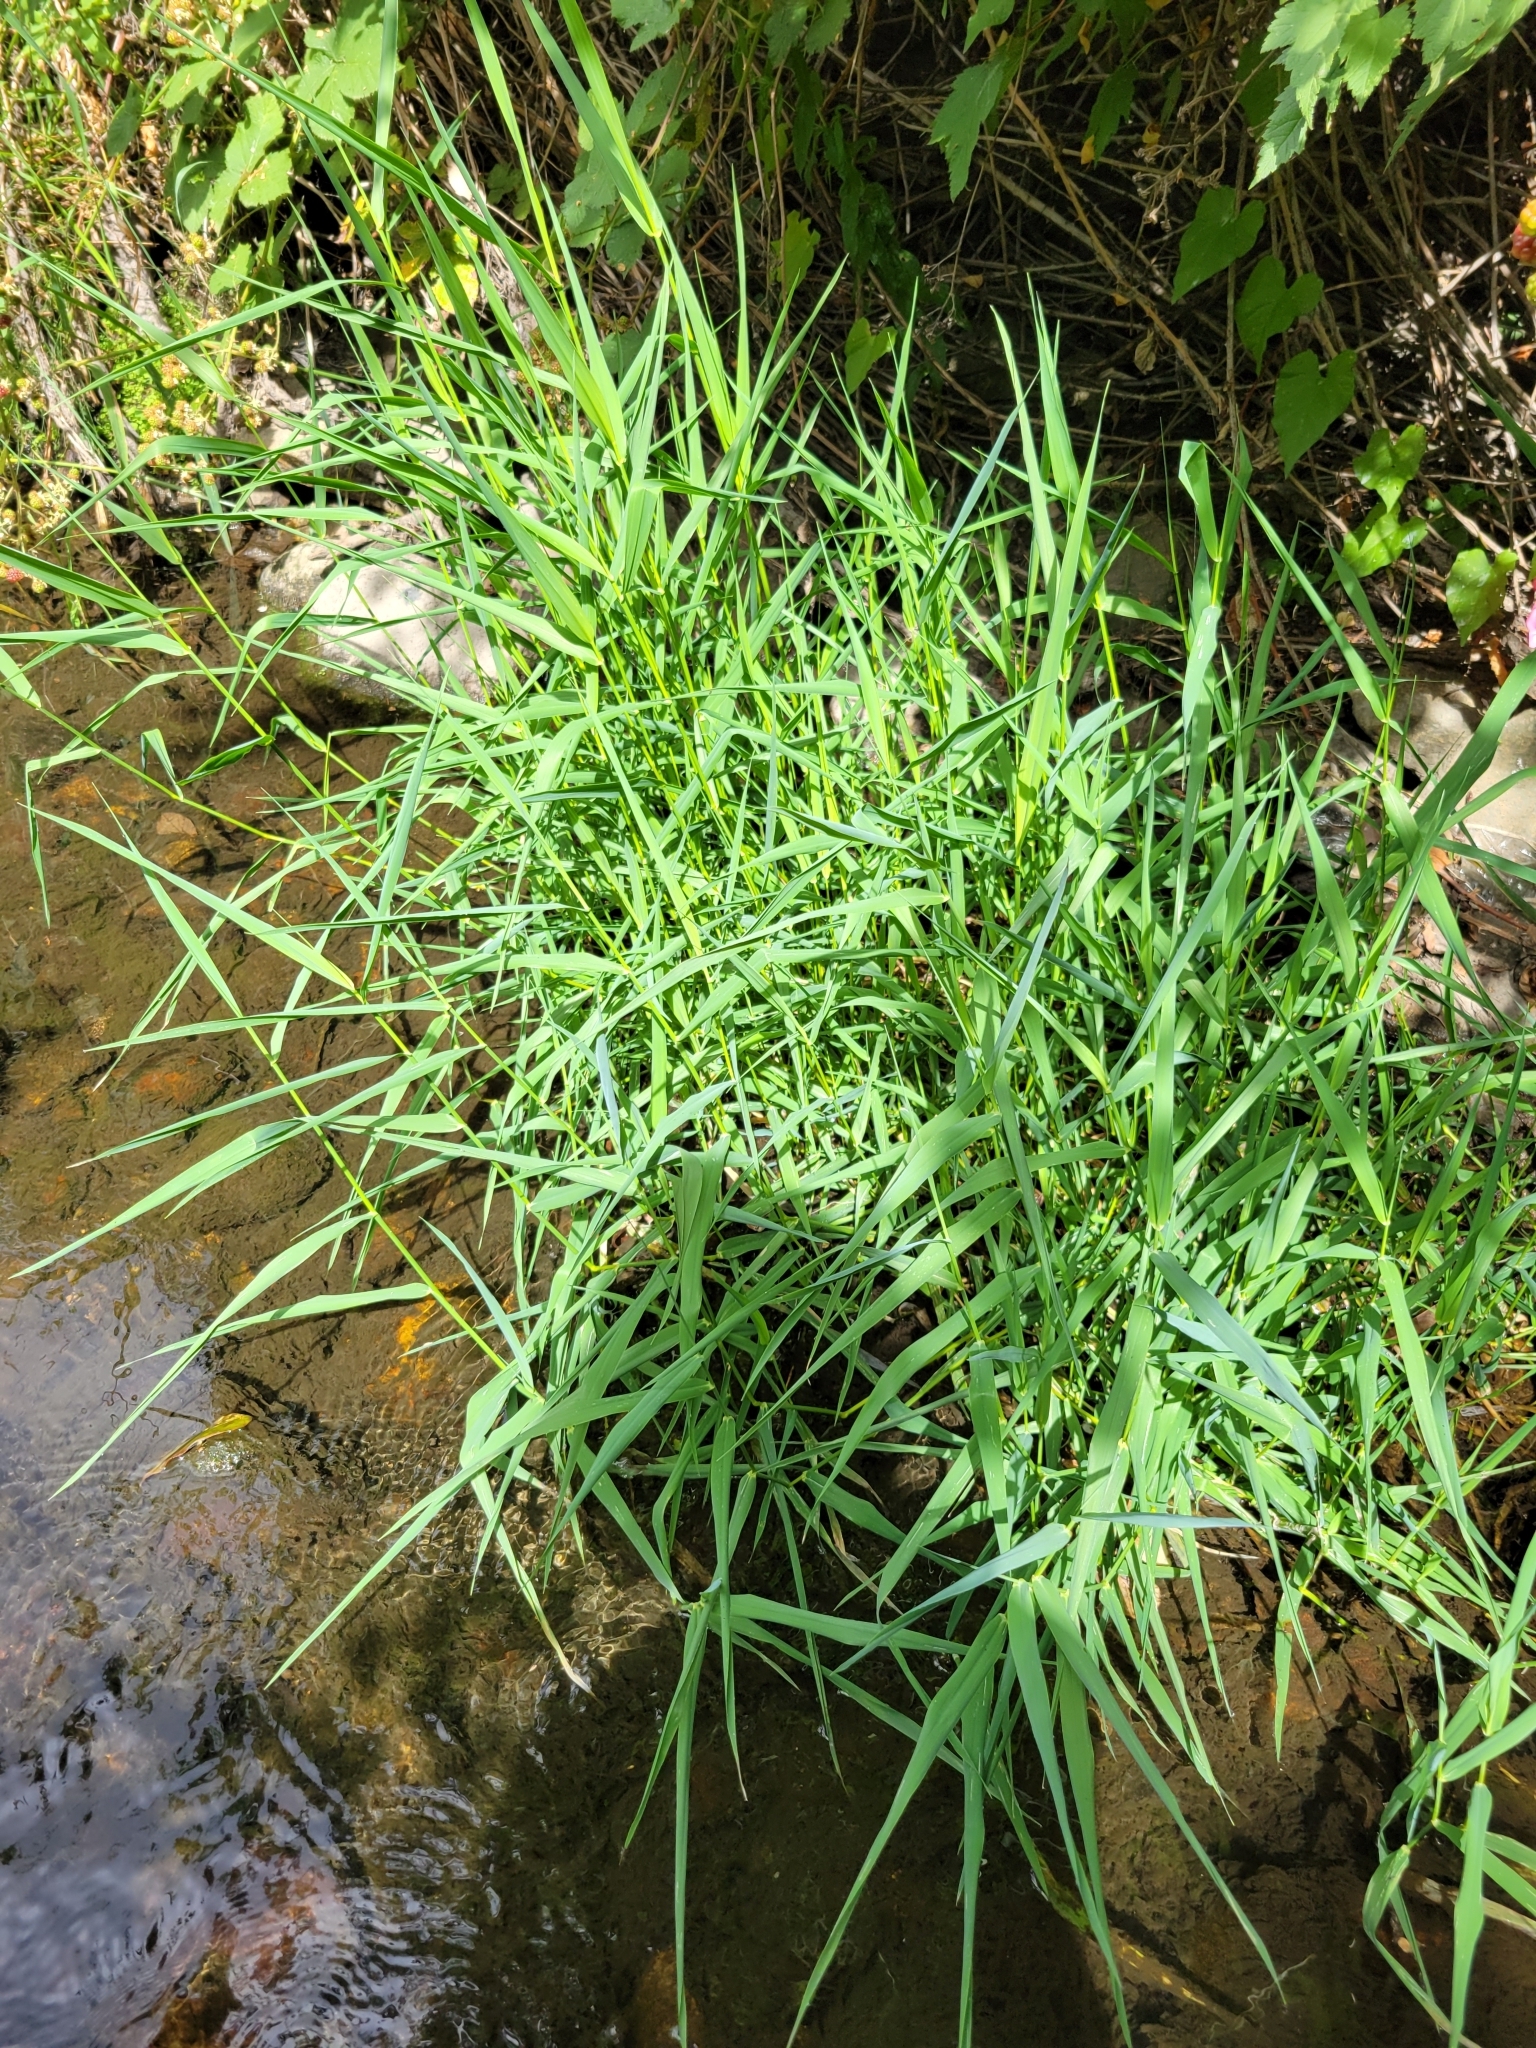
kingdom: Plantae
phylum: Tracheophyta
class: Liliopsida
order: Poales
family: Poaceae
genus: Phalaris
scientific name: Phalaris arundinacea
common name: Reed canary-grass
